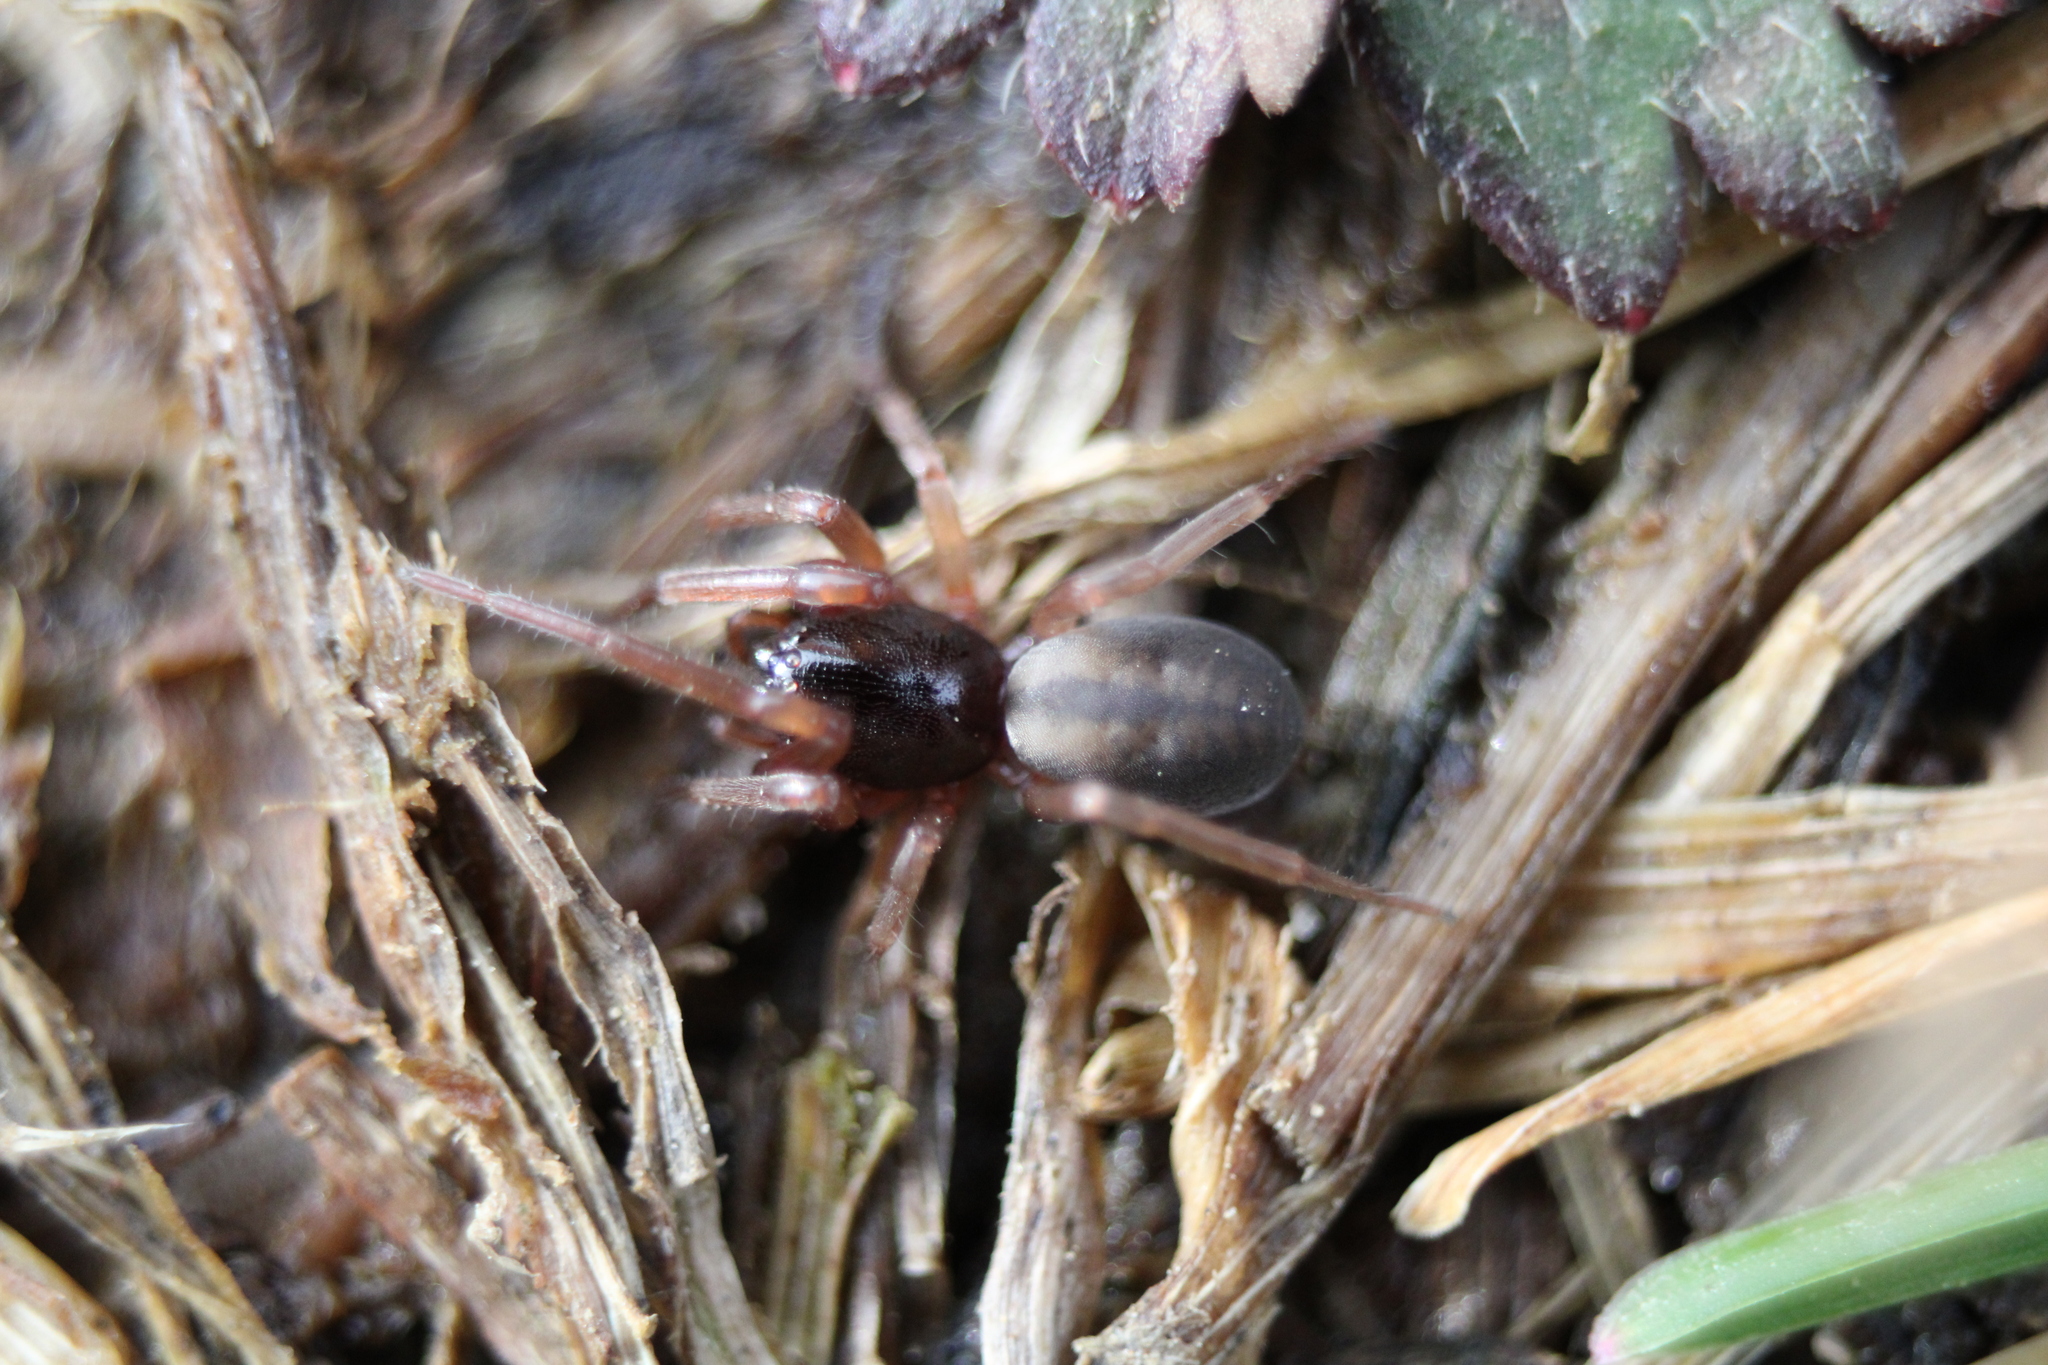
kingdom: Animalia
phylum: Arthropoda
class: Arachnida
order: Araneae
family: Trachelidae
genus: Meriola
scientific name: Meriola decepta
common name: Corinnid sac spiders
